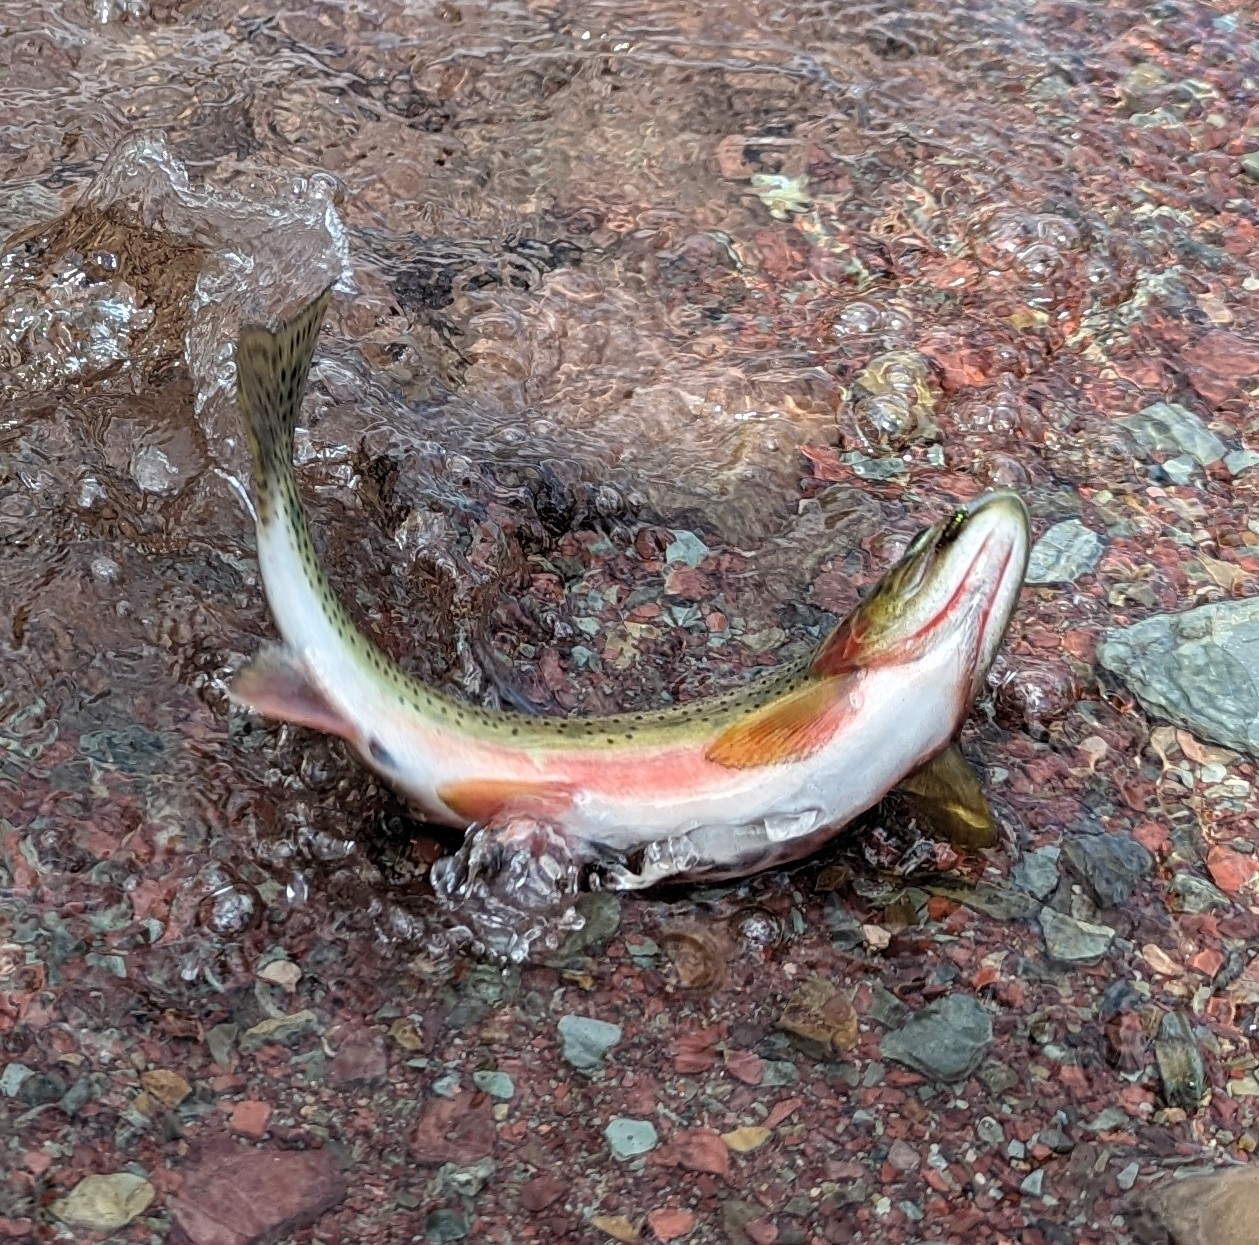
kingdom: Animalia
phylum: Chordata
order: Salmoniformes
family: Salmonidae
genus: Oncorhynchus
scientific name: Oncorhynchus
